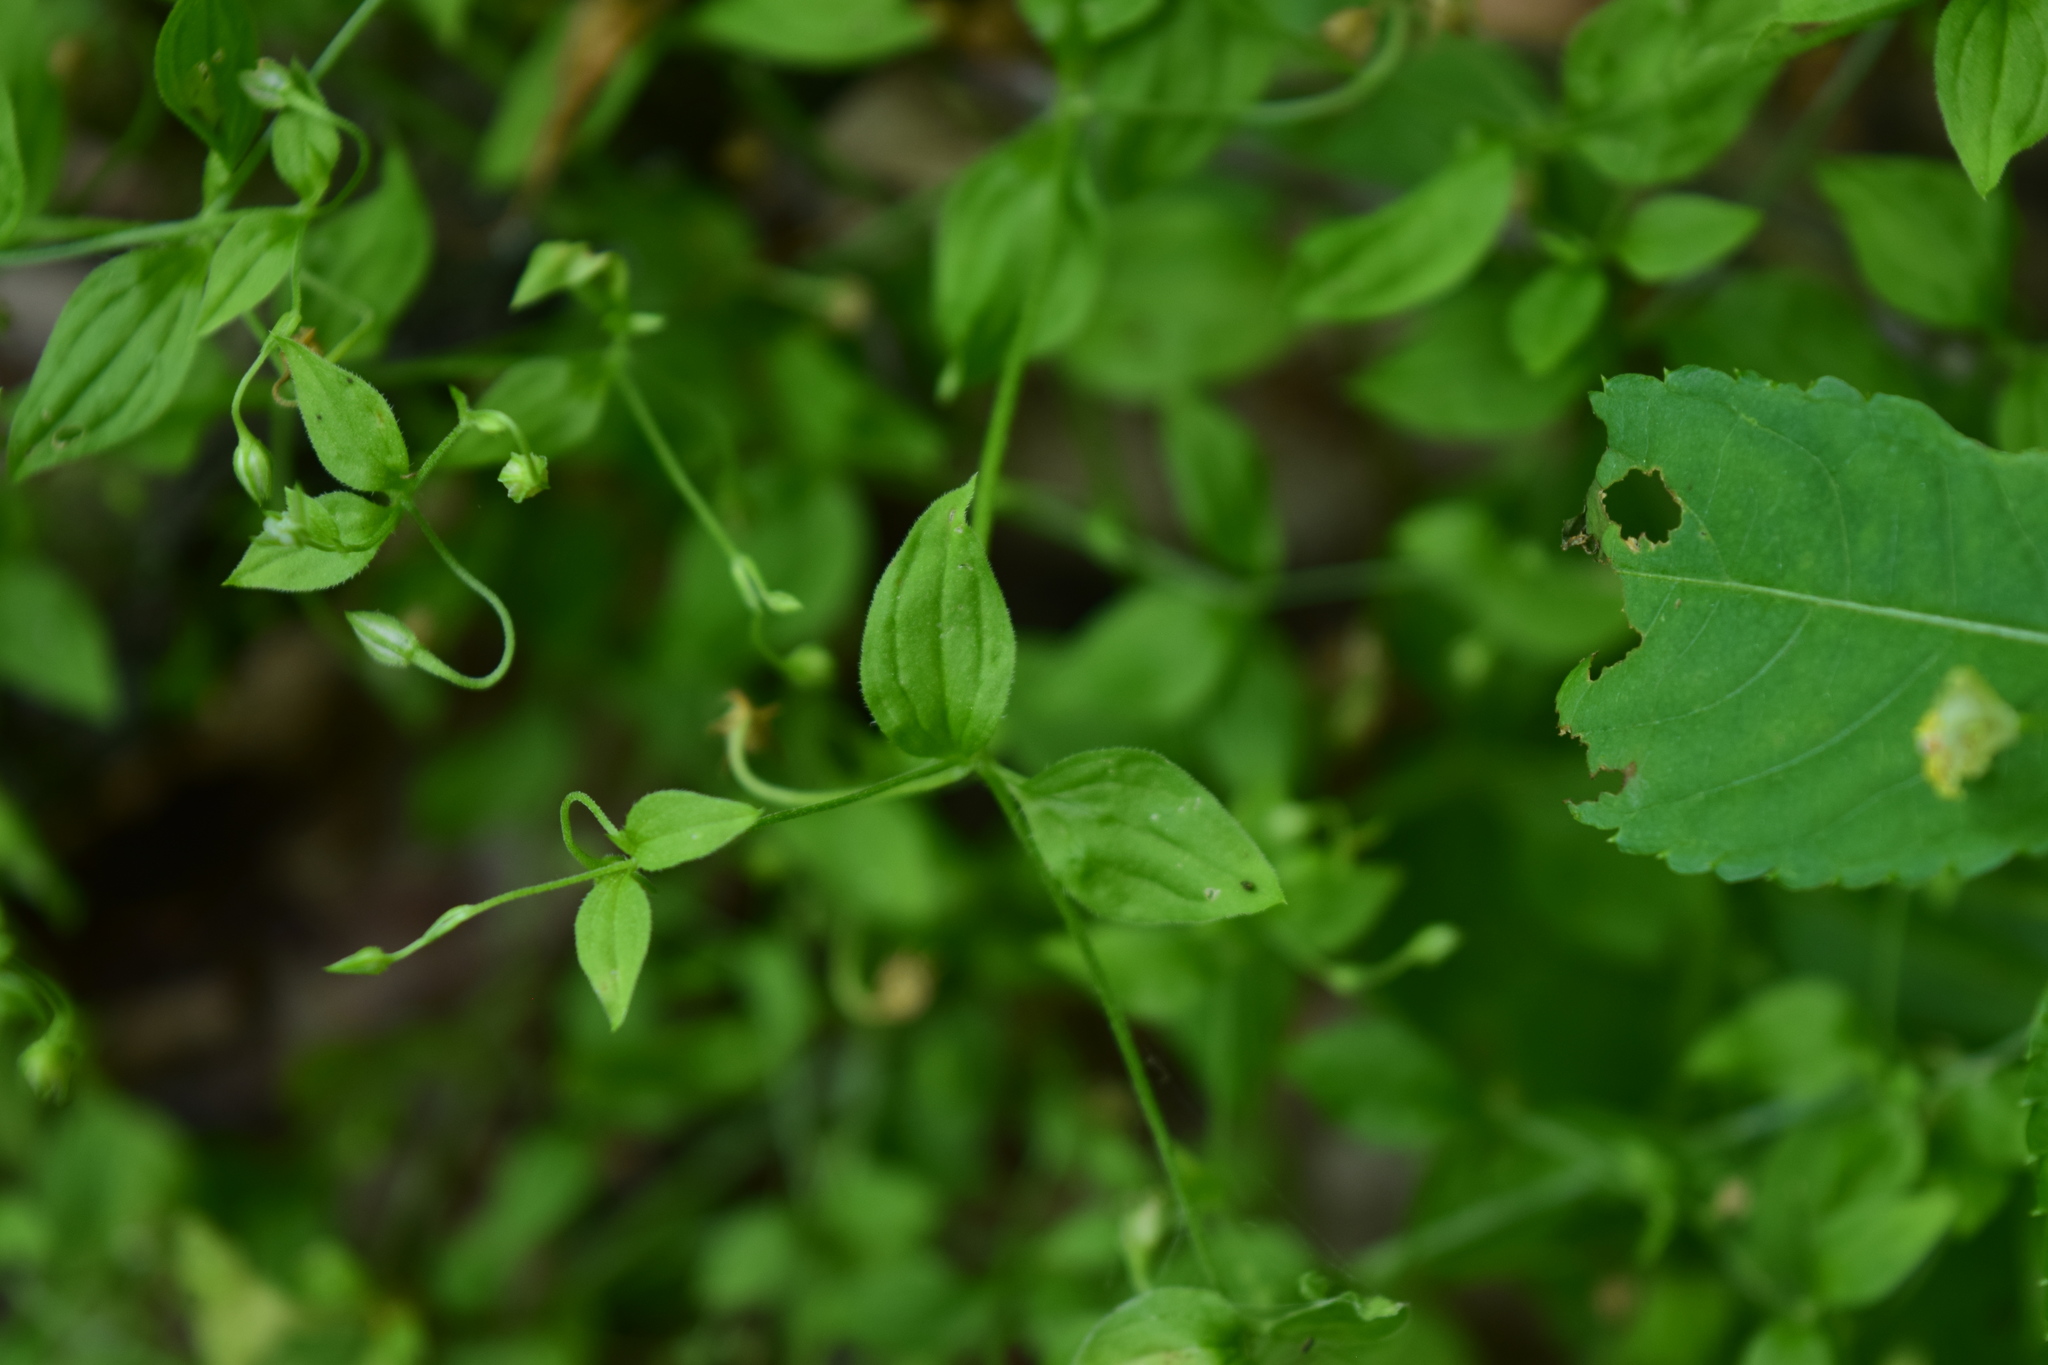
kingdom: Plantae
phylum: Tracheophyta
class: Magnoliopsida
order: Caryophyllales
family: Caryophyllaceae
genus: Moehringia
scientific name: Moehringia trinervia
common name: Three-nerved sandwort
